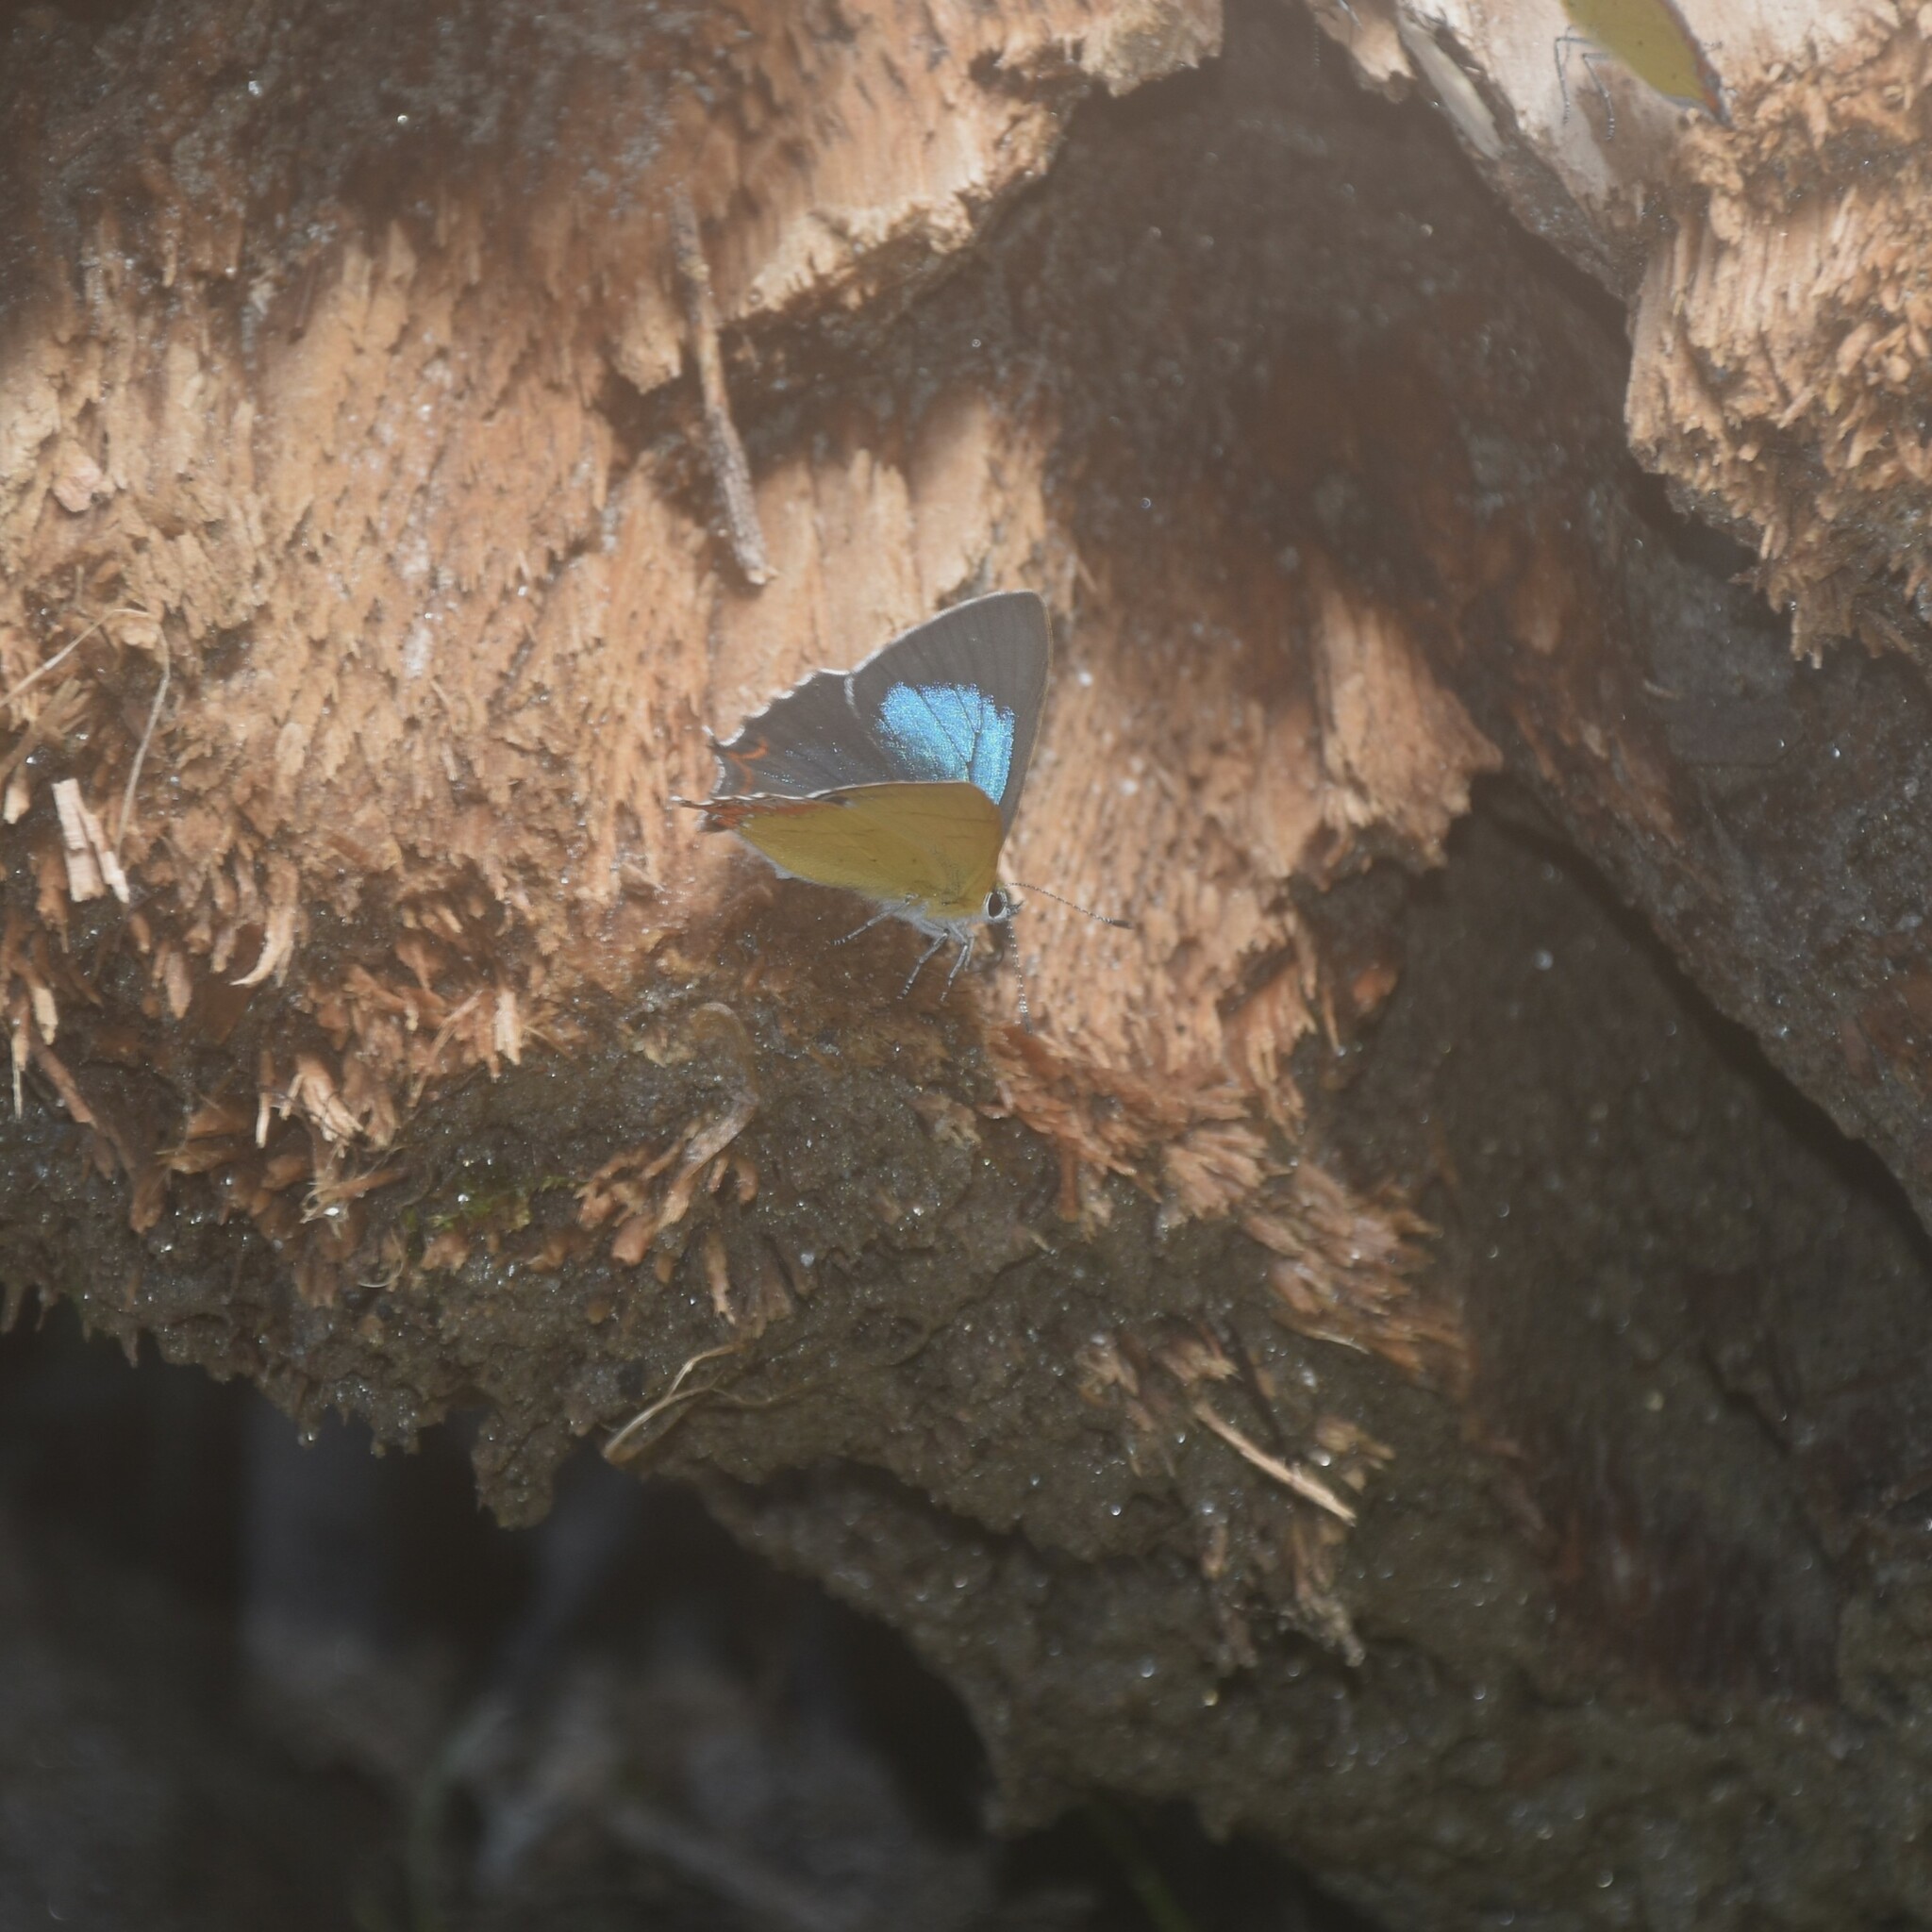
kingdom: Animalia
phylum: Arthropoda
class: Insecta
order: Lepidoptera
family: Lycaenidae
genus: Heliophorus
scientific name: Heliophorus
